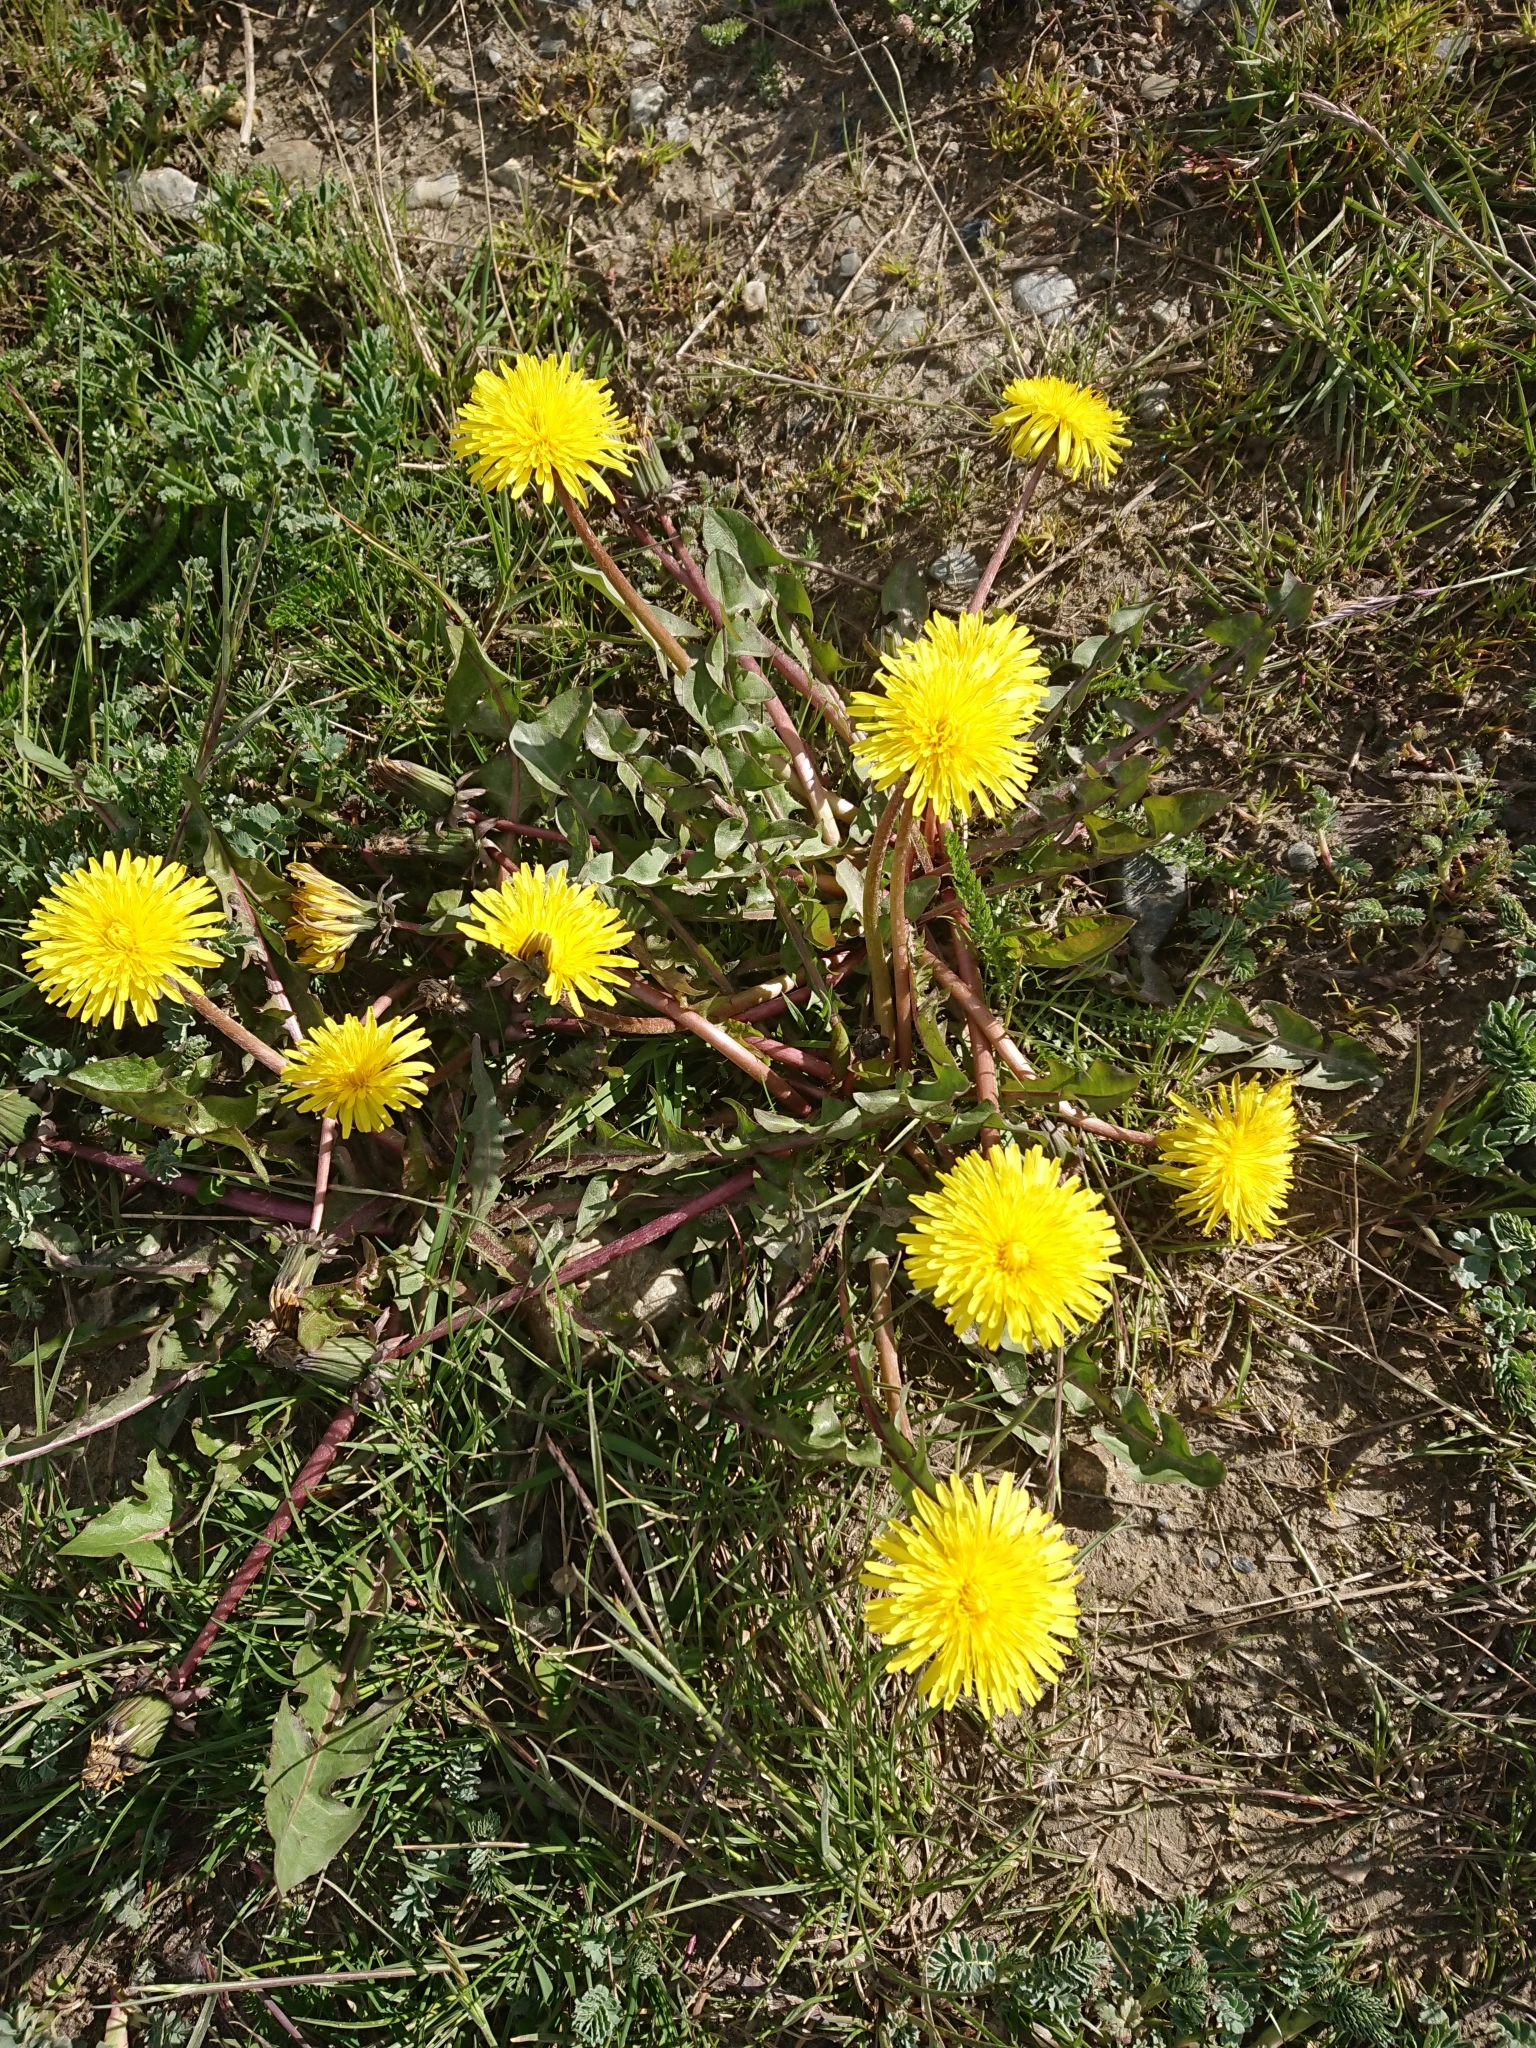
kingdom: Plantae
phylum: Tracheophyta
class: Magnoliopsida
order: Asterales
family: Asteraceae
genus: Taraxacum
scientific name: Taraxacum officinale
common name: Common dandelion
